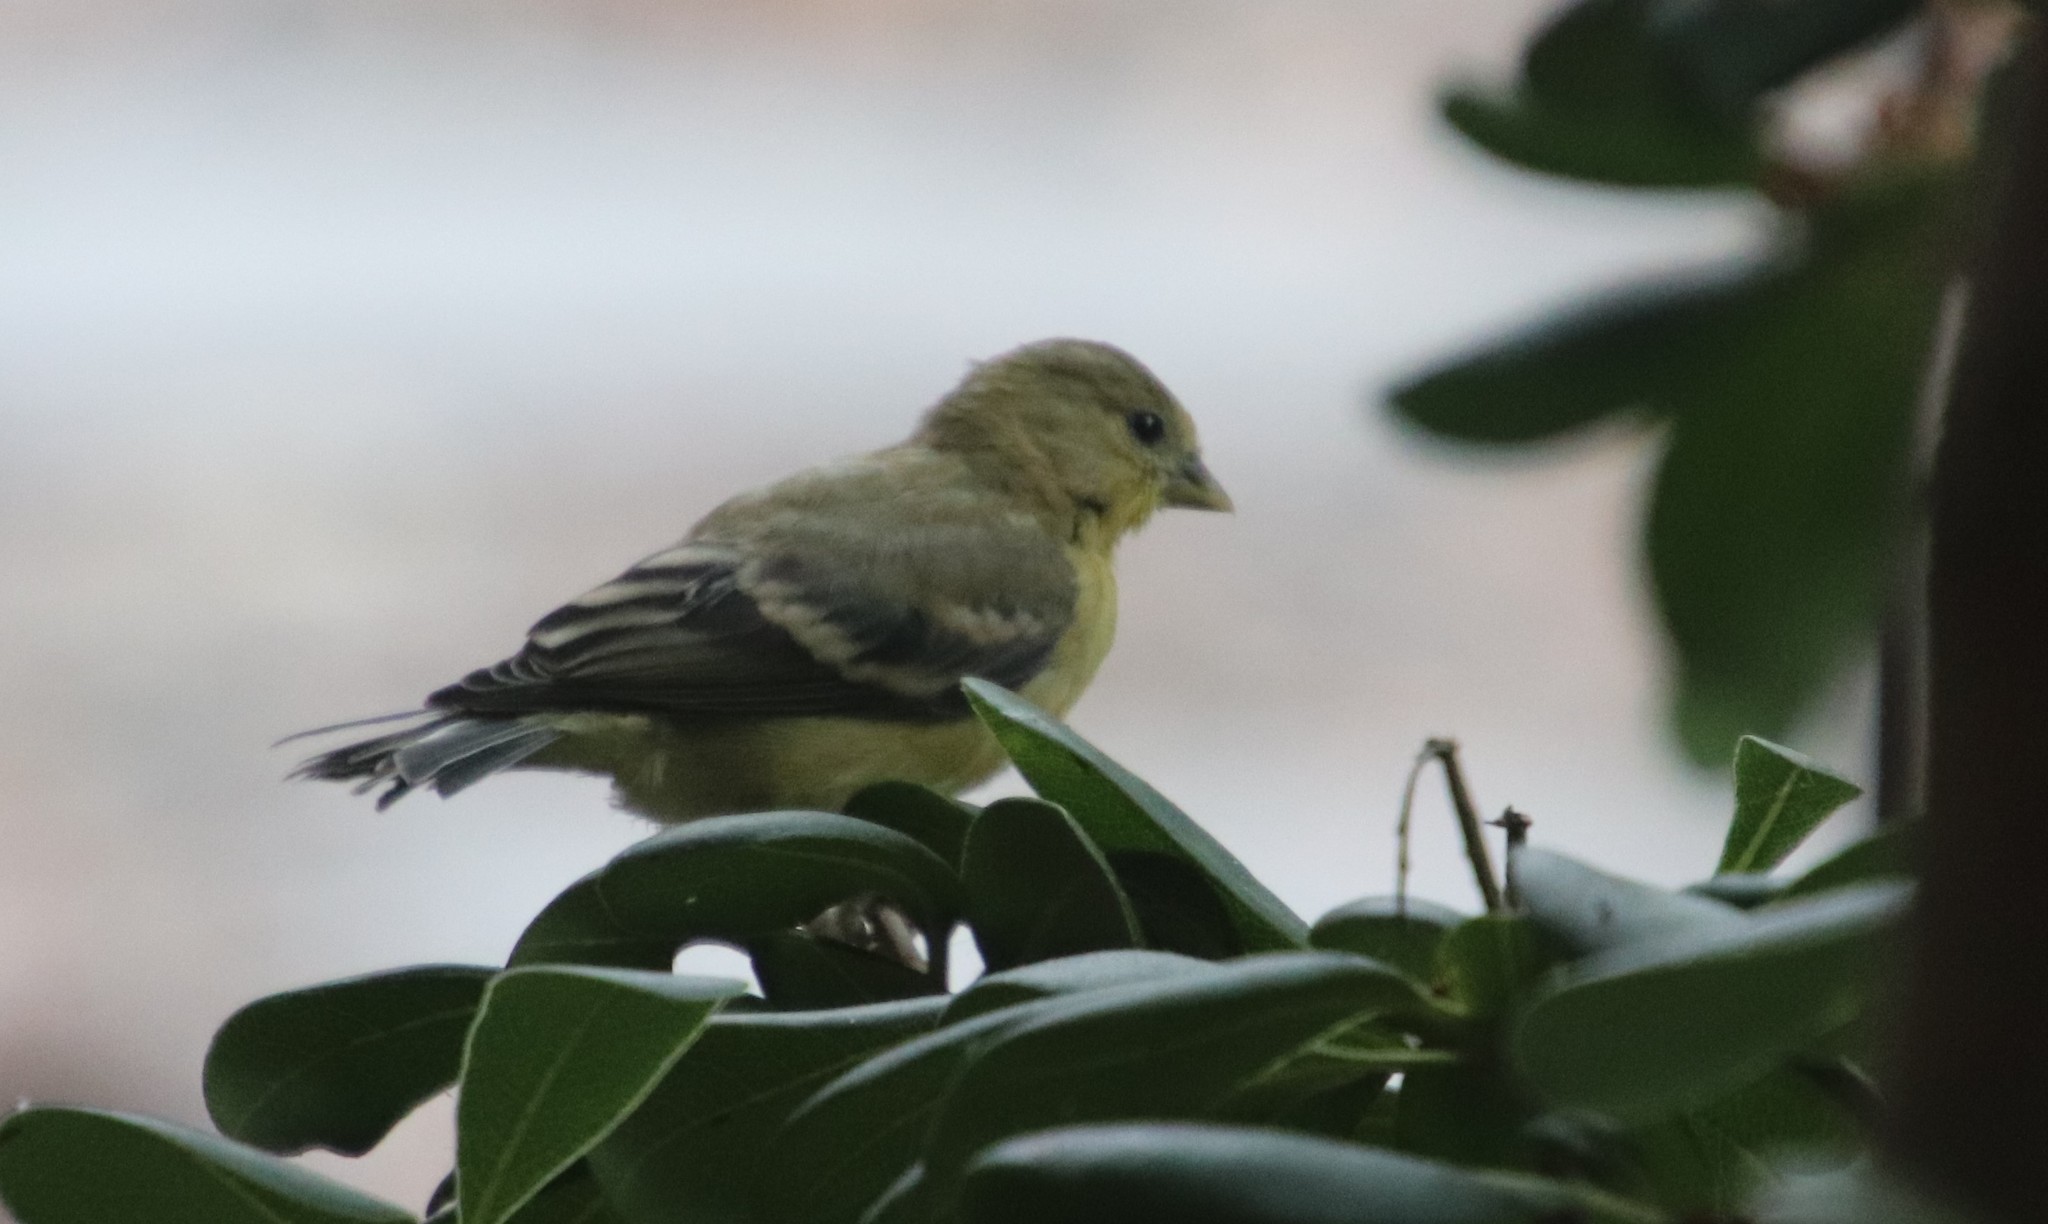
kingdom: Animalia
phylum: Chordata
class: Aves
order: Passeriformes
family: Fringillidae
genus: Spinus
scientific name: Spinus psaltria
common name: Lesser goldfinch
